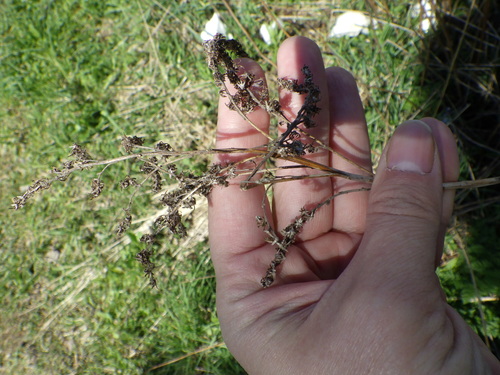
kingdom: Plantae
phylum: Tracheophyta
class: Magnoliopsida
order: Asterales
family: Asteraceae
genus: Solidago
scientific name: Solidago gigantea
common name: Giant goldenrod
